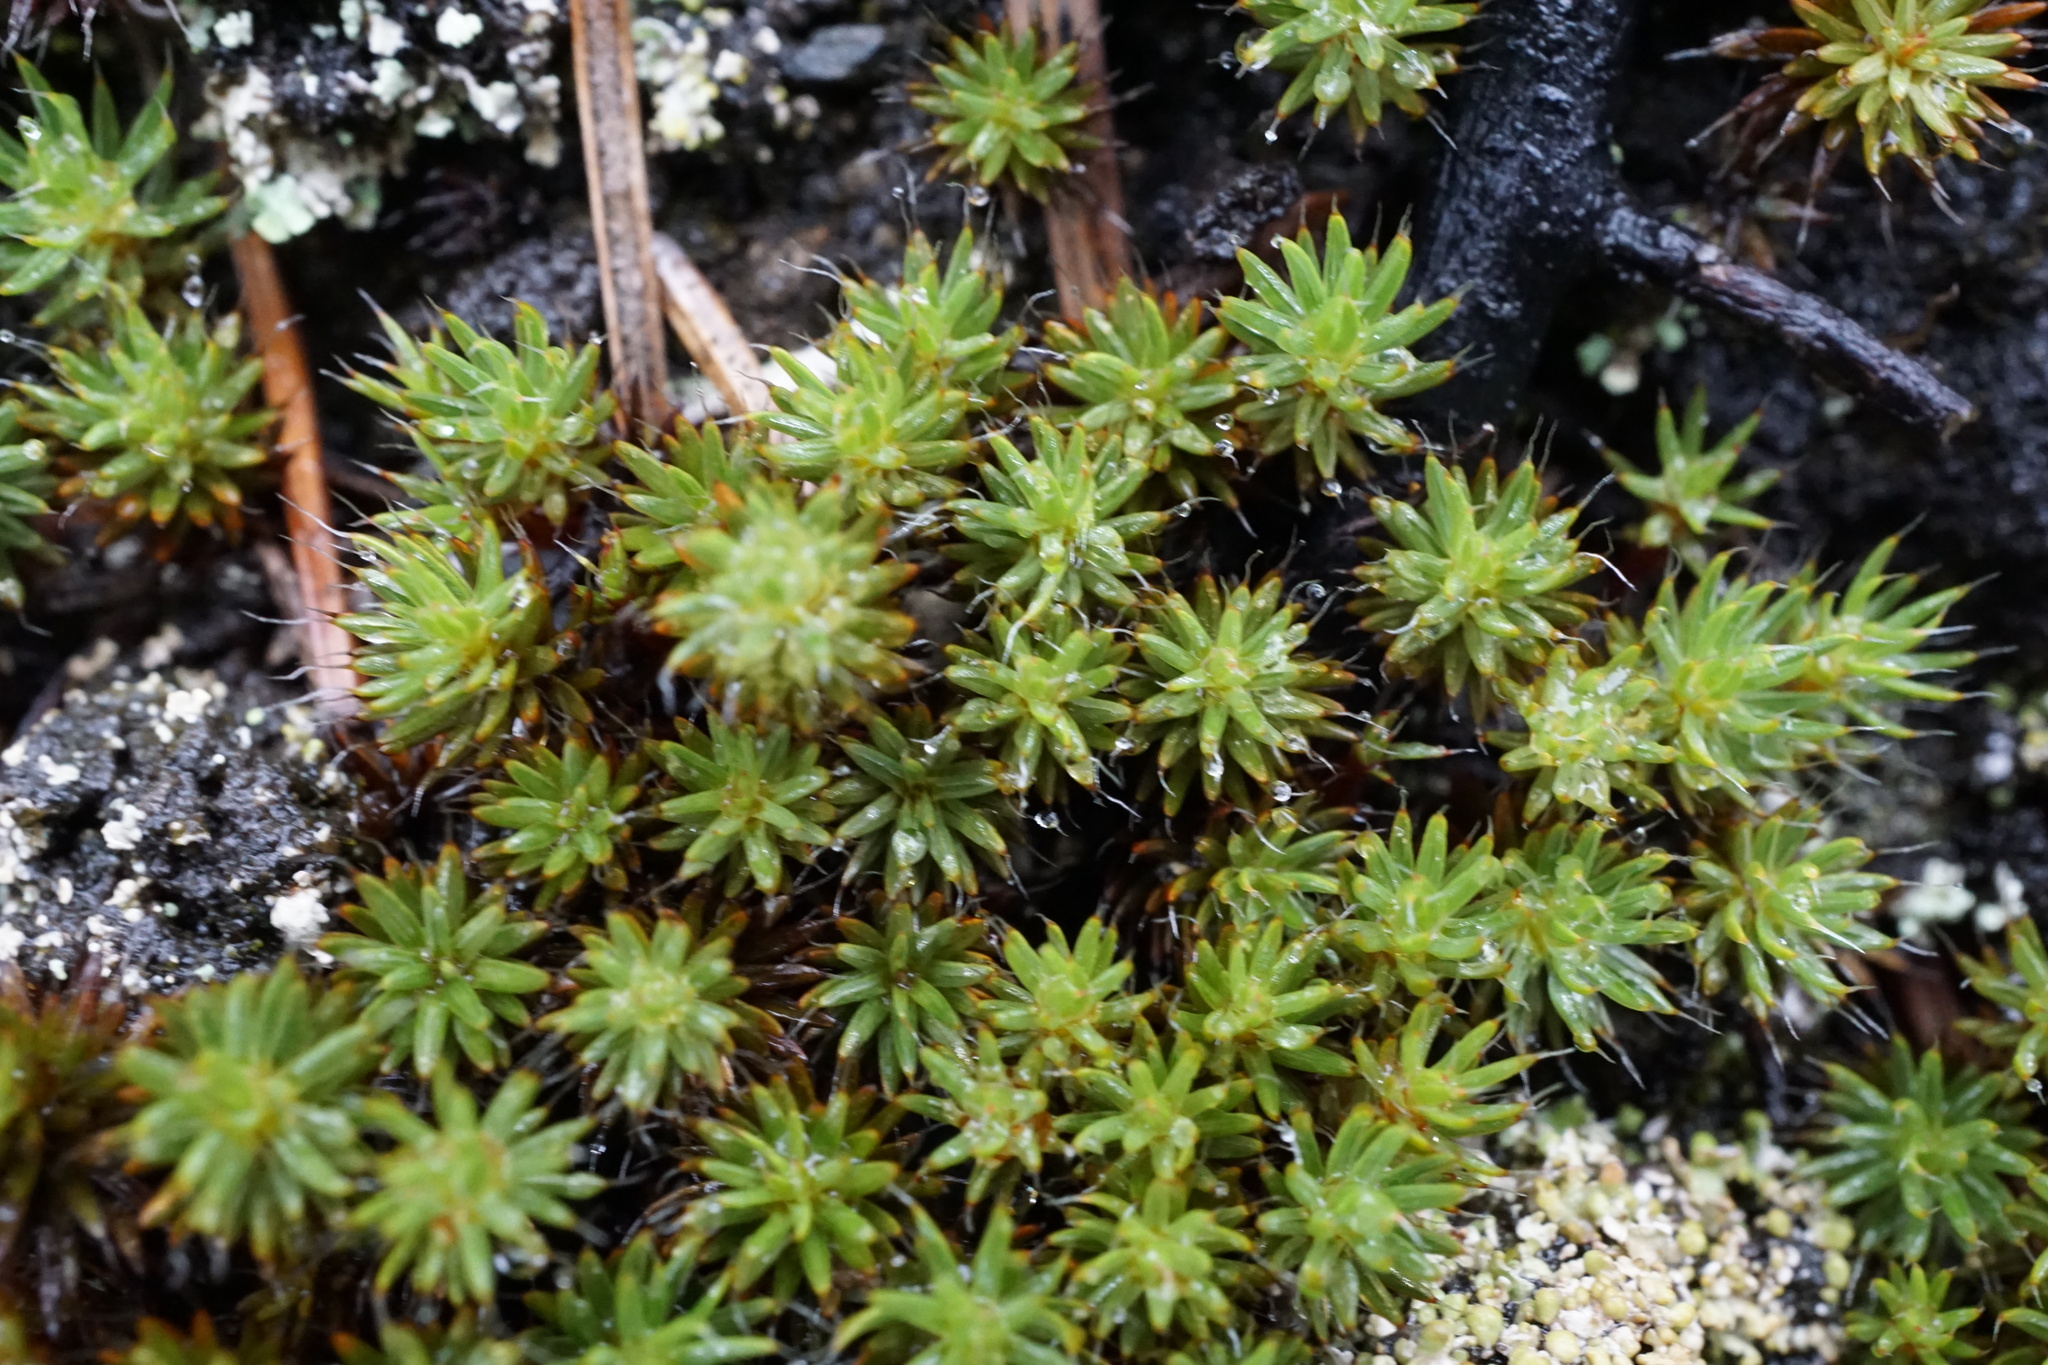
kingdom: Plantae
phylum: Bryophyta
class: Polytrichopsida
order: Polytrichales
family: Polytrichaceae
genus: Polytrichum
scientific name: Polytrichum piliferum
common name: Bristly haircap
